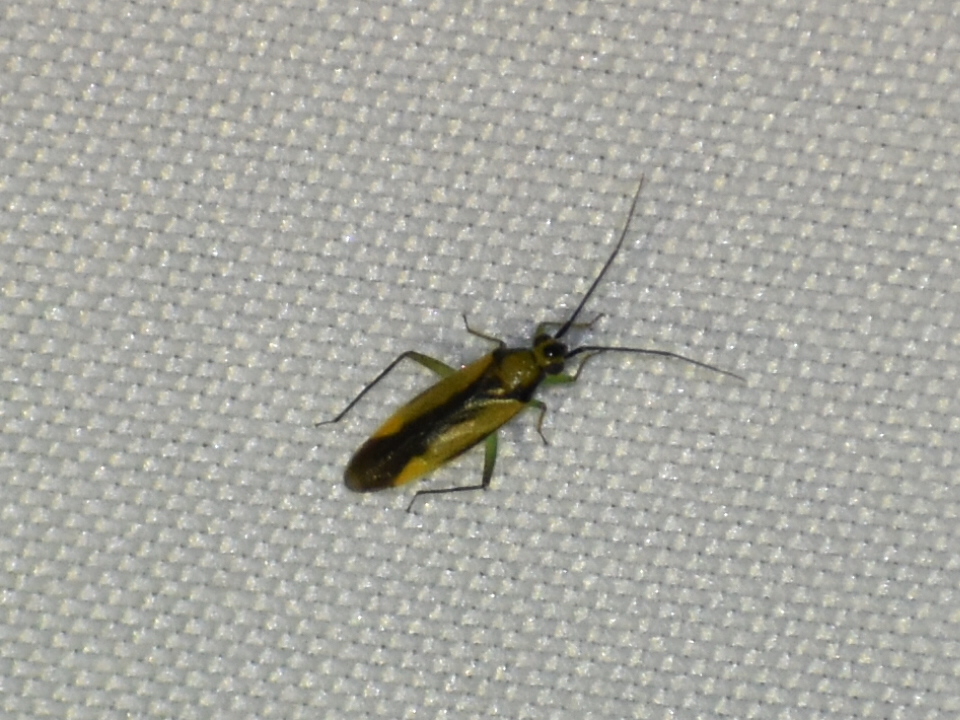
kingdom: Animalia
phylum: Arthropoda
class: Insecta
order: Hemiptera
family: Miridae
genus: Orthotylus
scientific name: Orthotylus submarginatus
